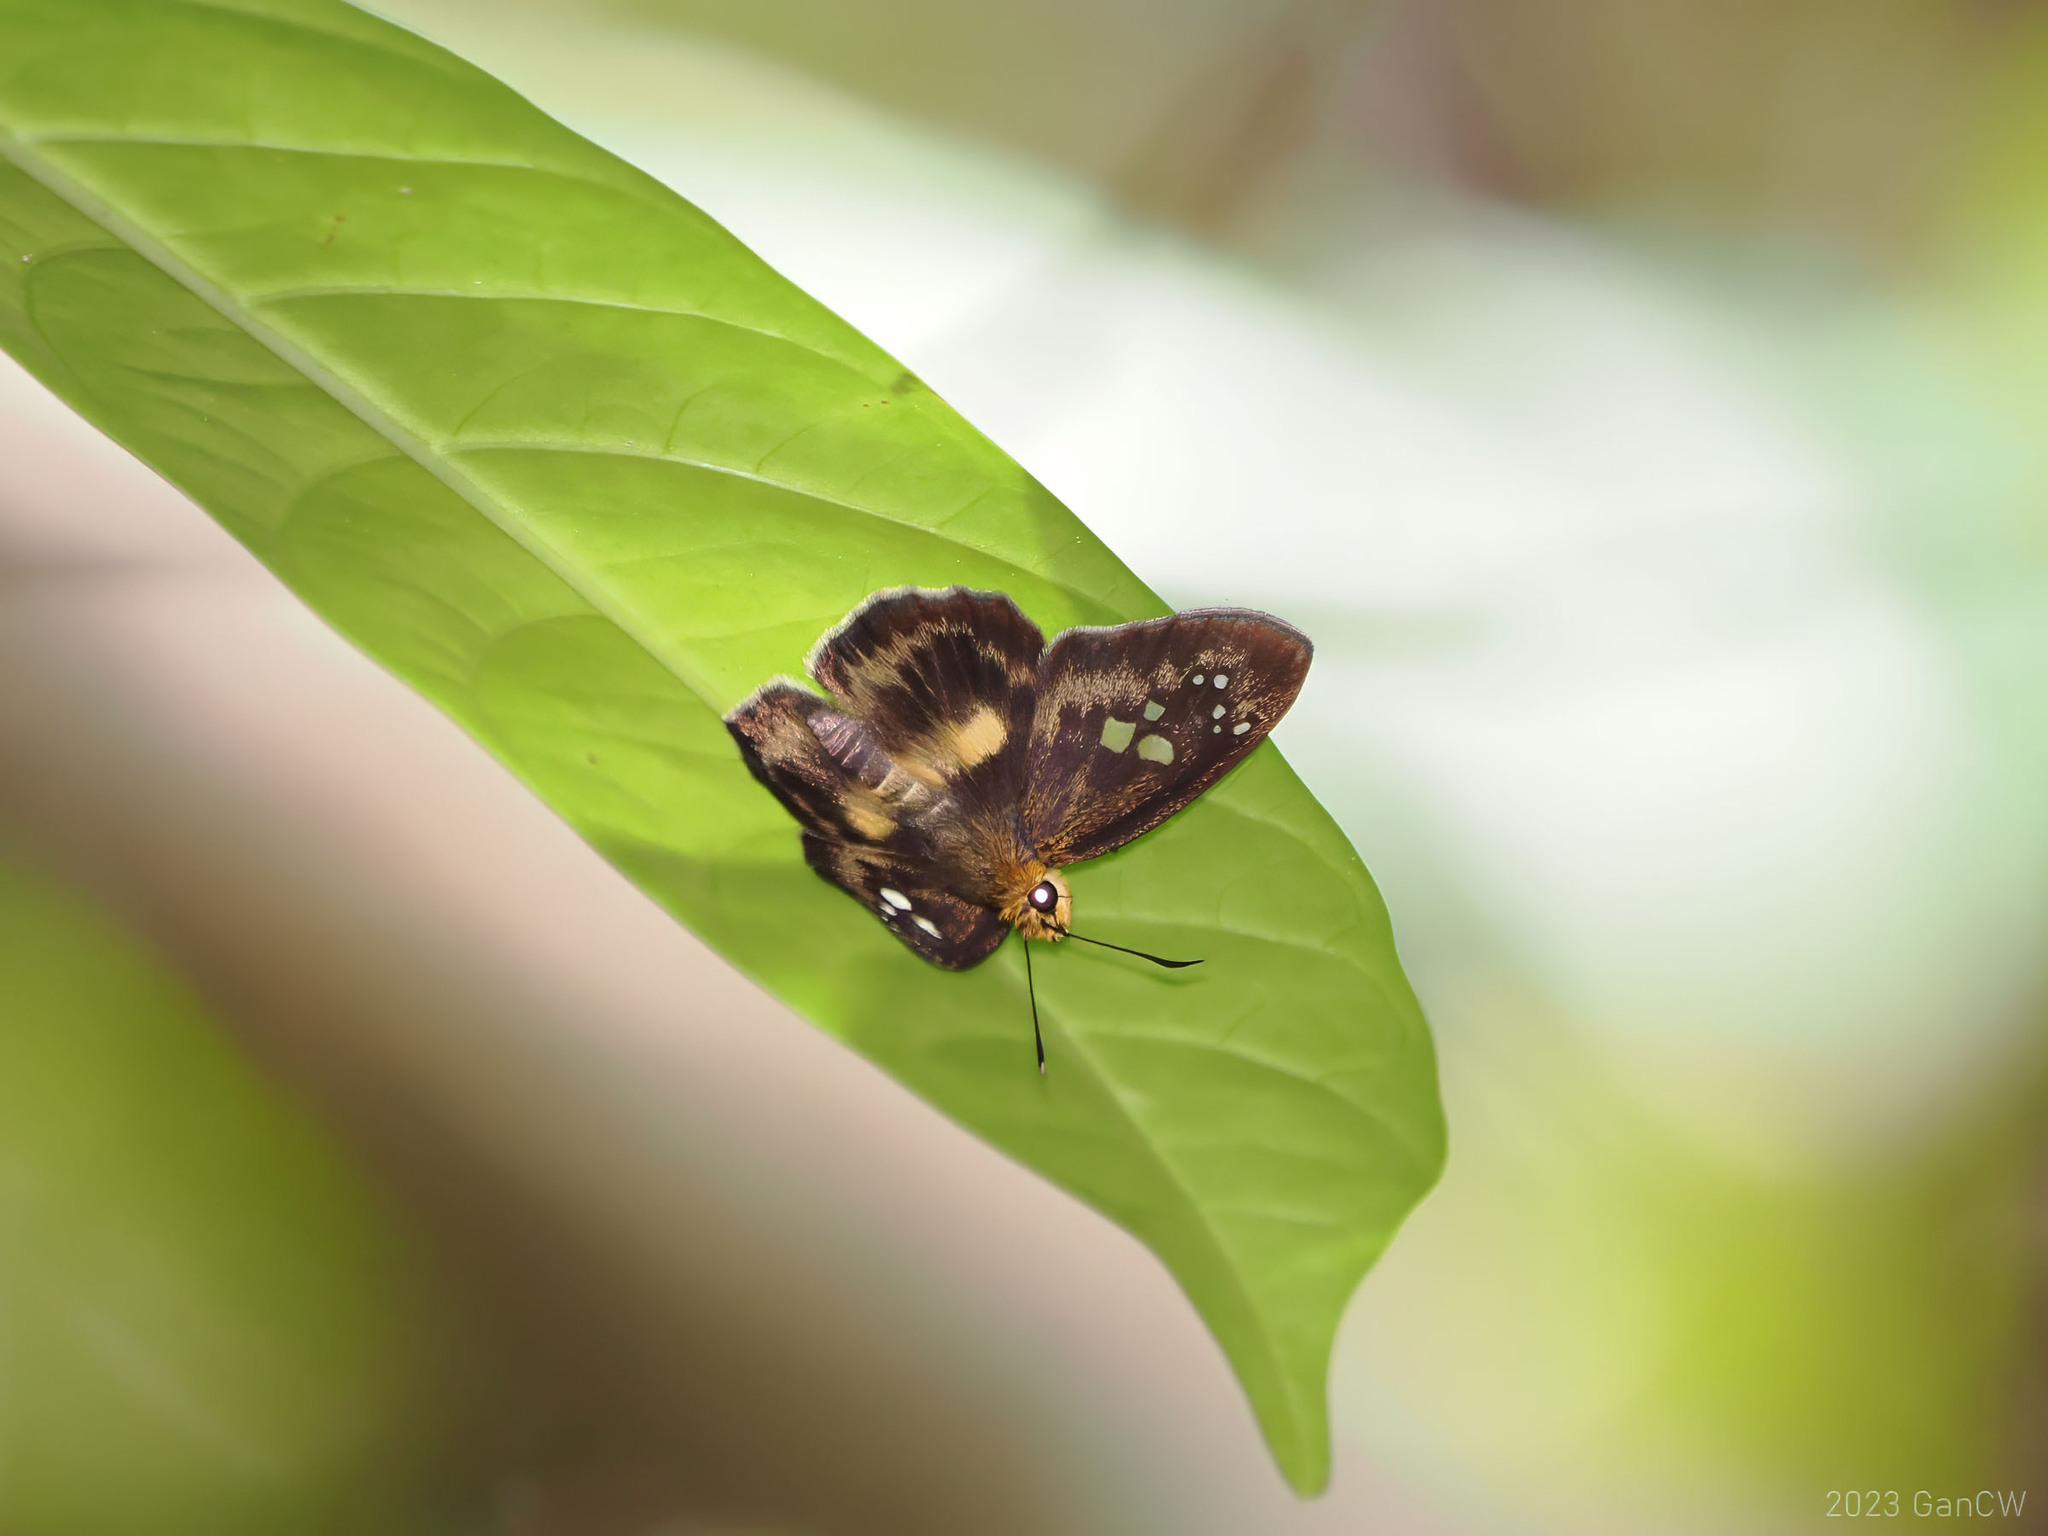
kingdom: Animalia
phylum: Arthropoda
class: Insecta
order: Lepidoptera
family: Hesperiidae
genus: Daimio
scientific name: Daimio
